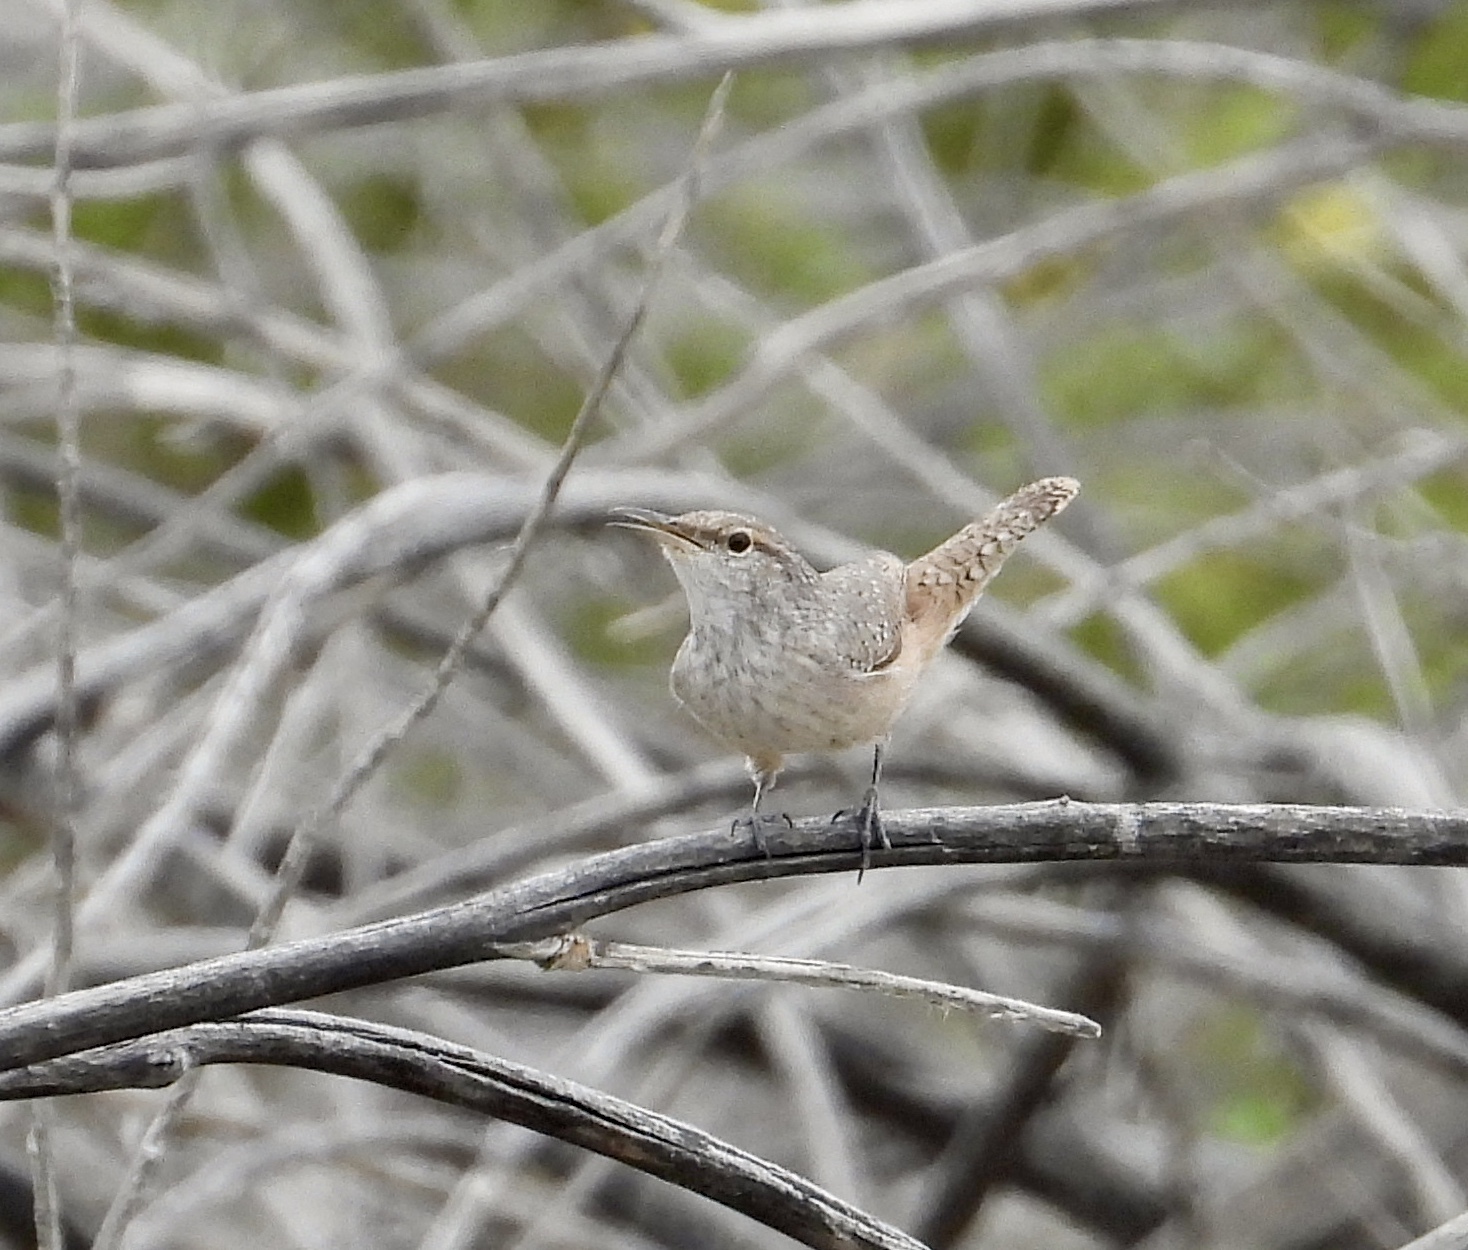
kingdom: Animalia
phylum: Chordata
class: Aves
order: Passeriformes
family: Troglodytidae
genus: Salpinctes
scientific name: Salpinctes obsoletus
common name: Rock wren
